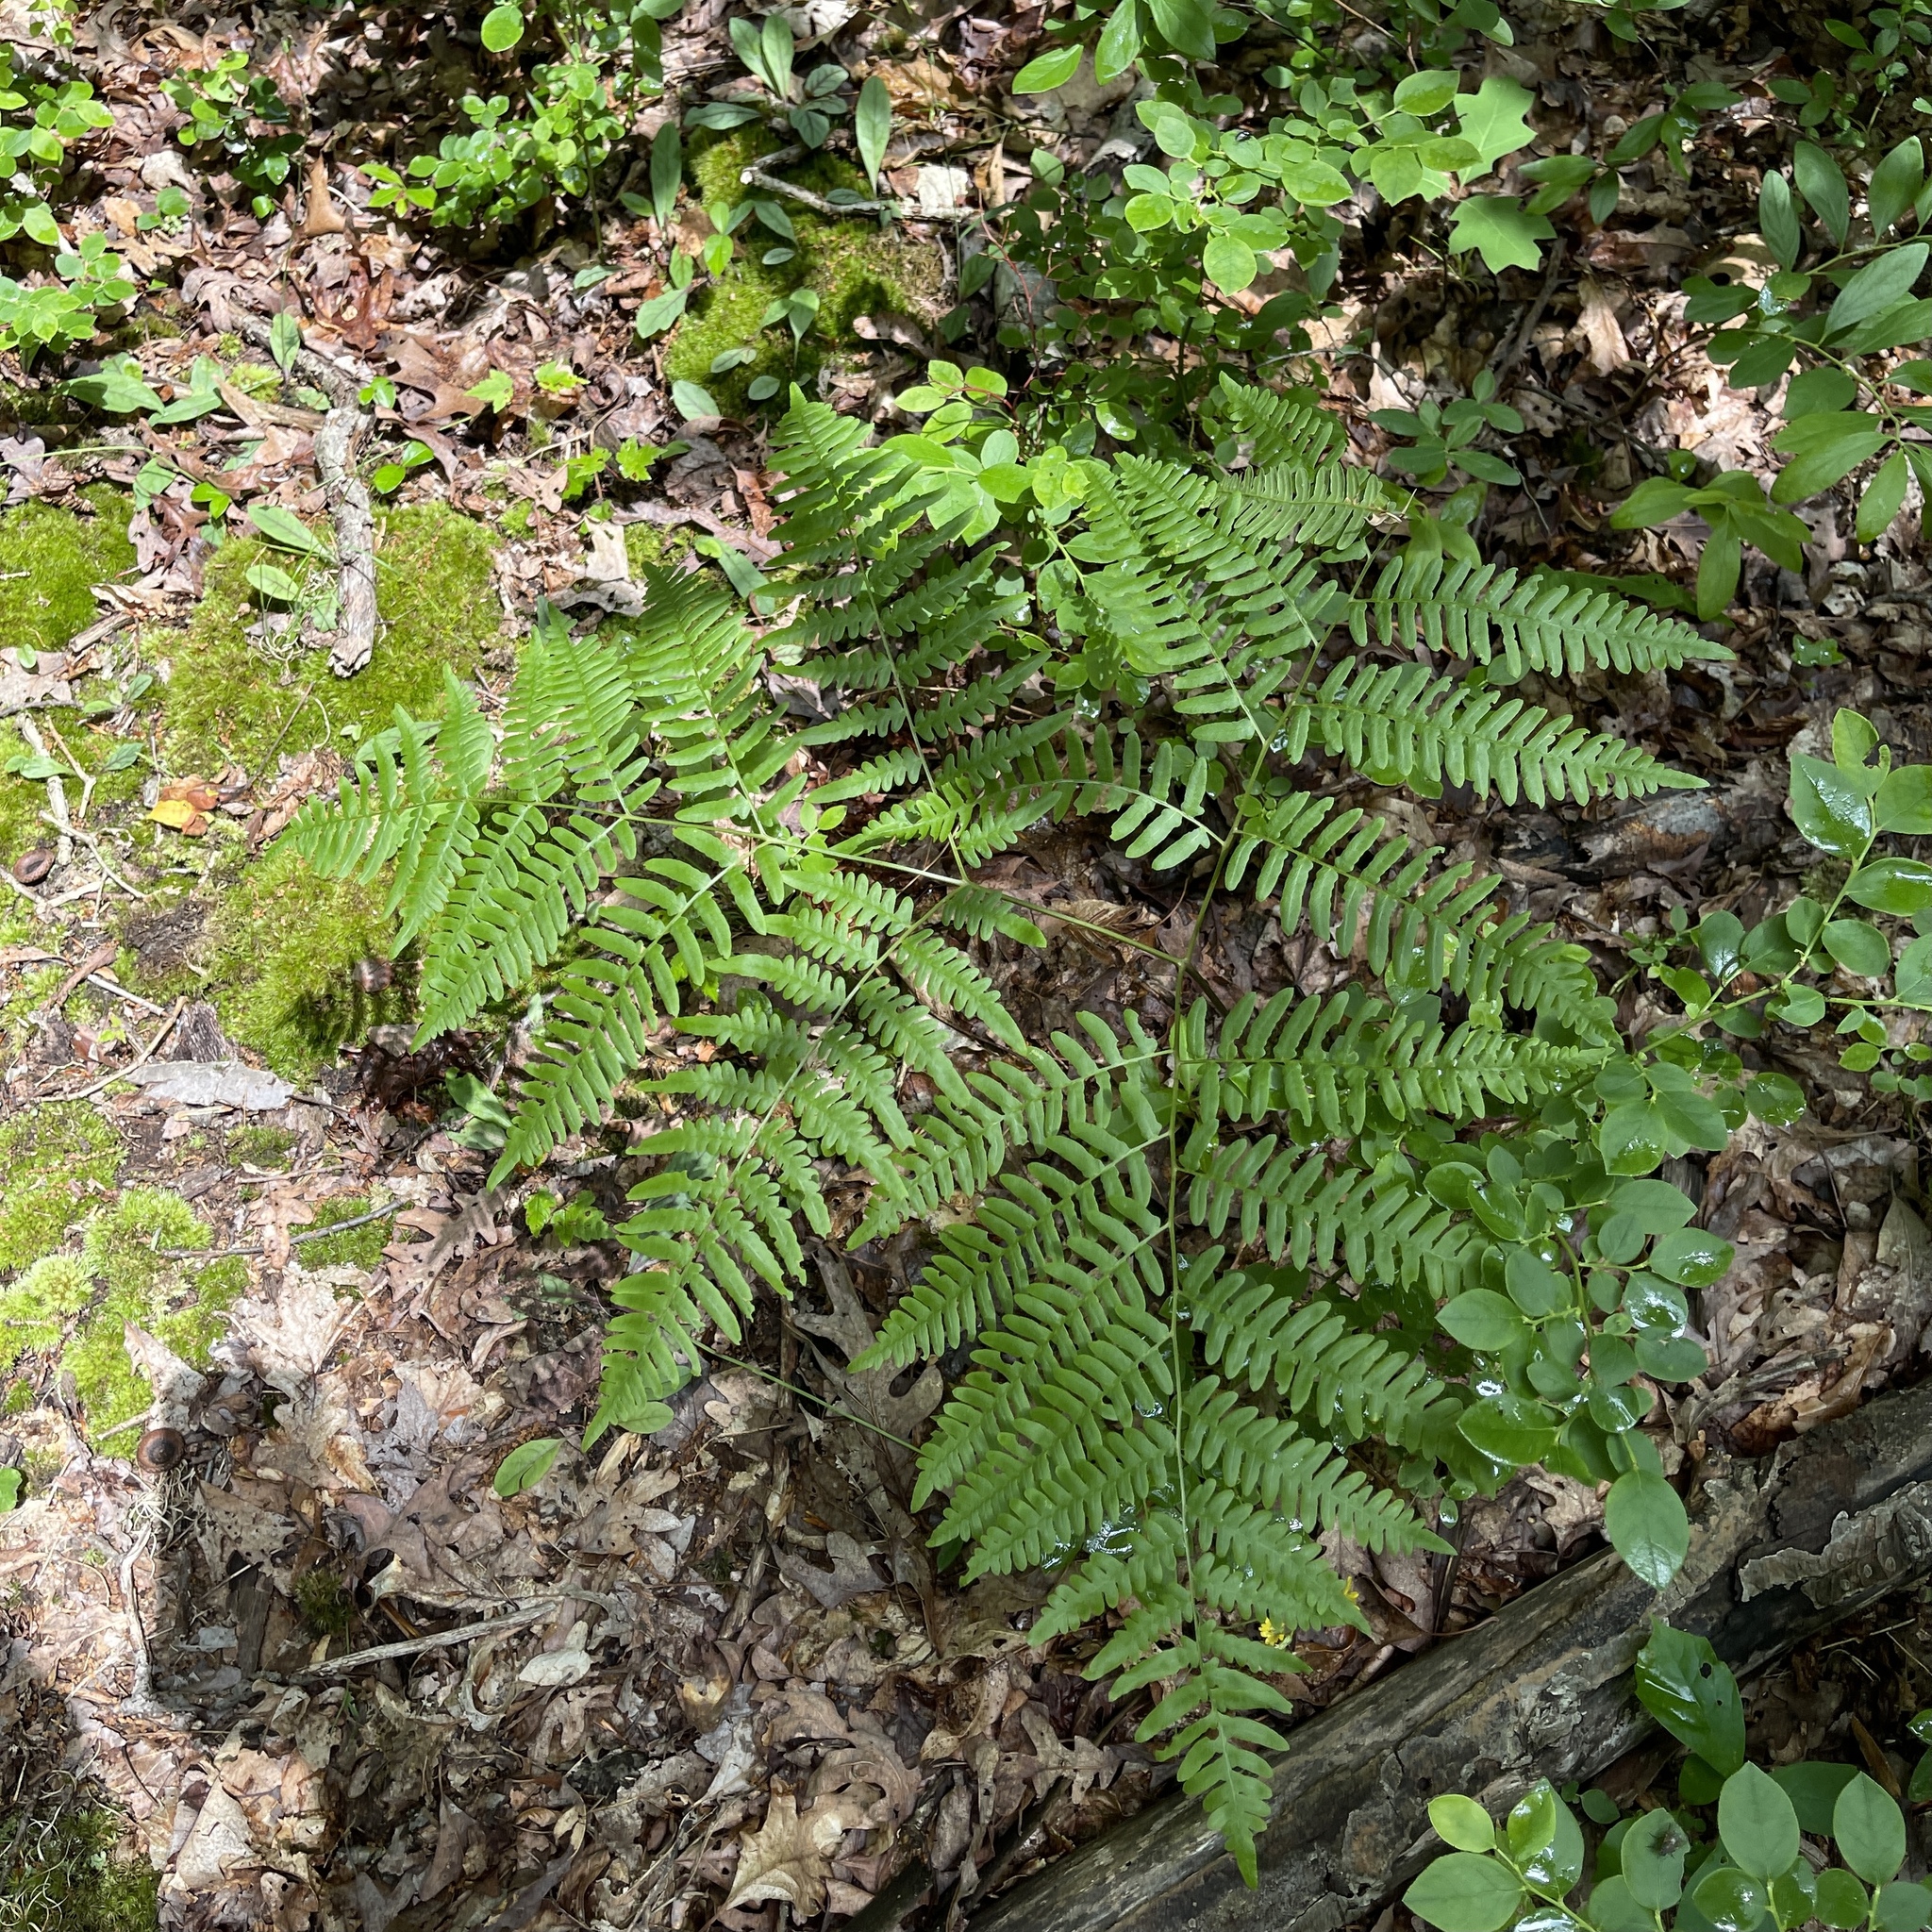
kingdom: Plantae
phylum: Tracheophyta
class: Polypodiopsida
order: Polypodiales
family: Dennstaedtiaceae
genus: Pteridium
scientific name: Pteridium aquilinum
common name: Bracken
